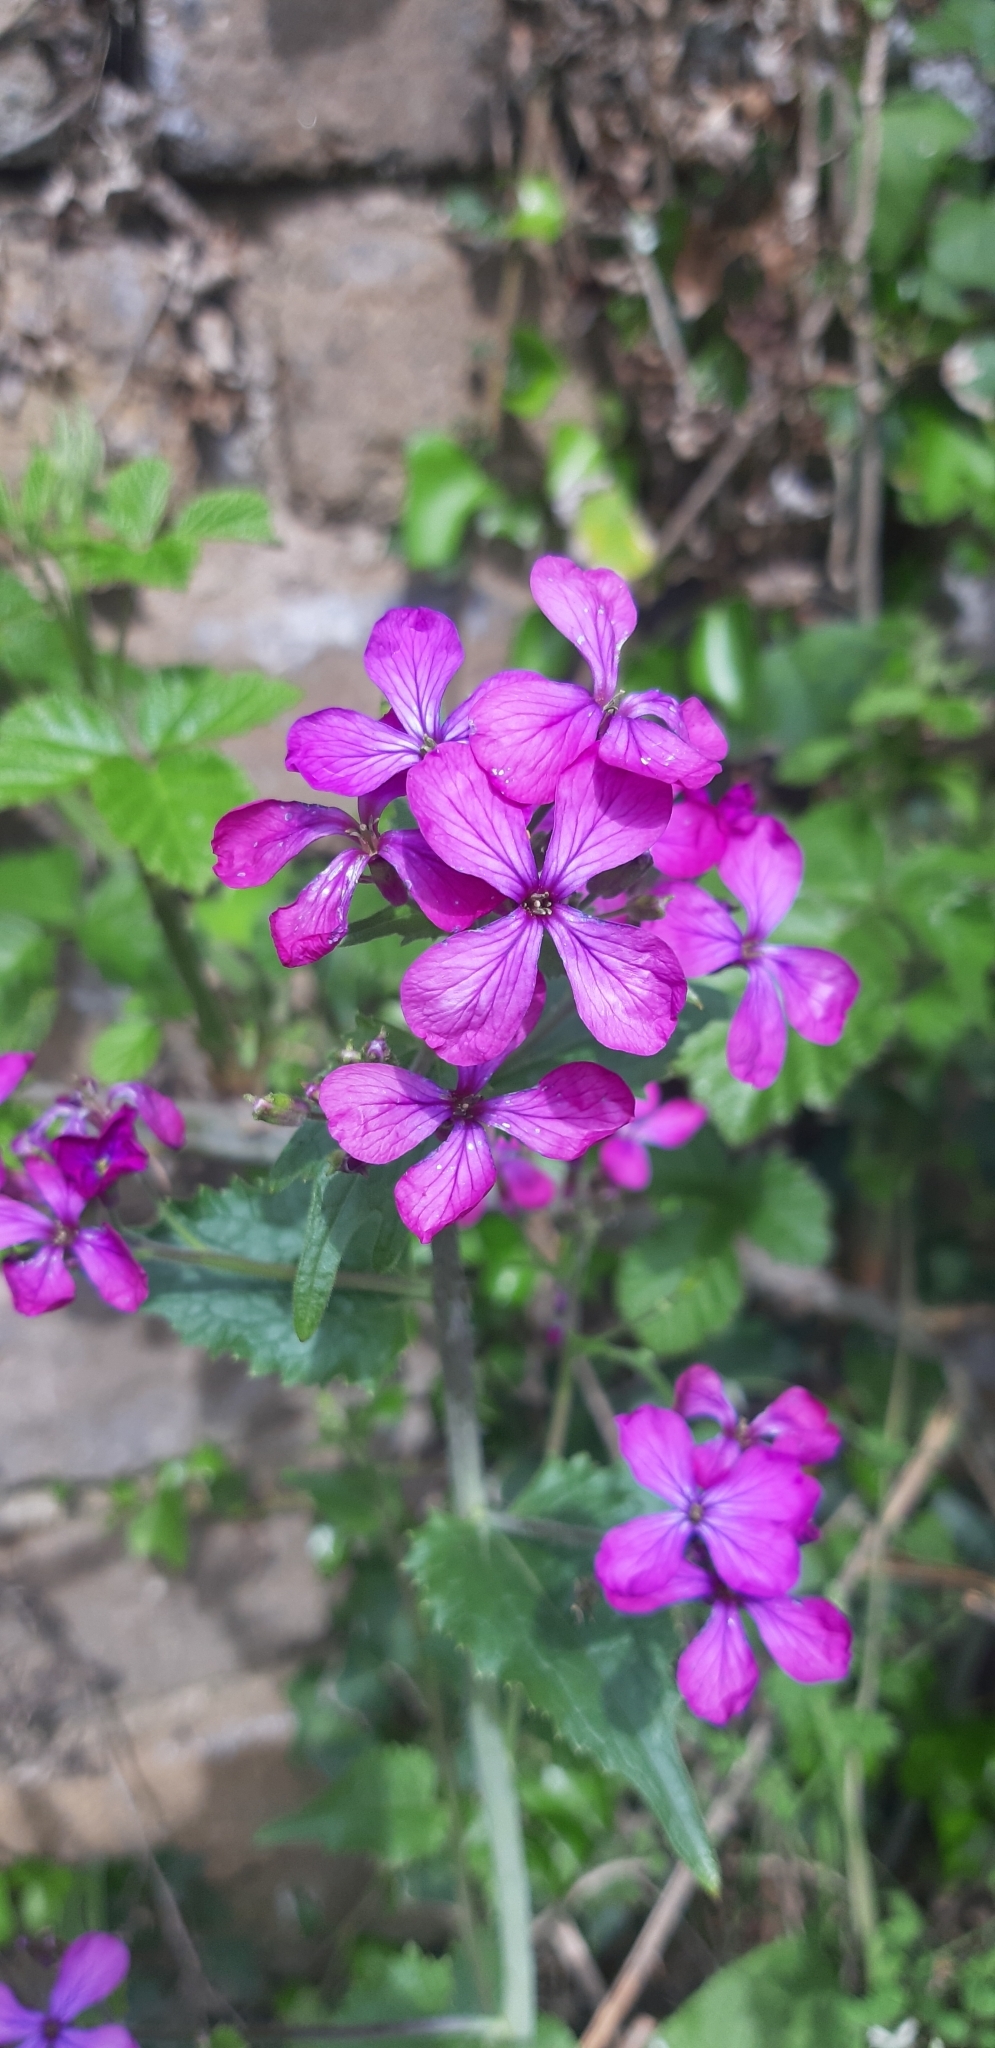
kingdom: Plantae
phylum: Tracheophyta
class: Magnoliopsida
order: Brassicales
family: Brassicaceae
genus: Lunaria
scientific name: Lunaria annua
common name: Honesty
